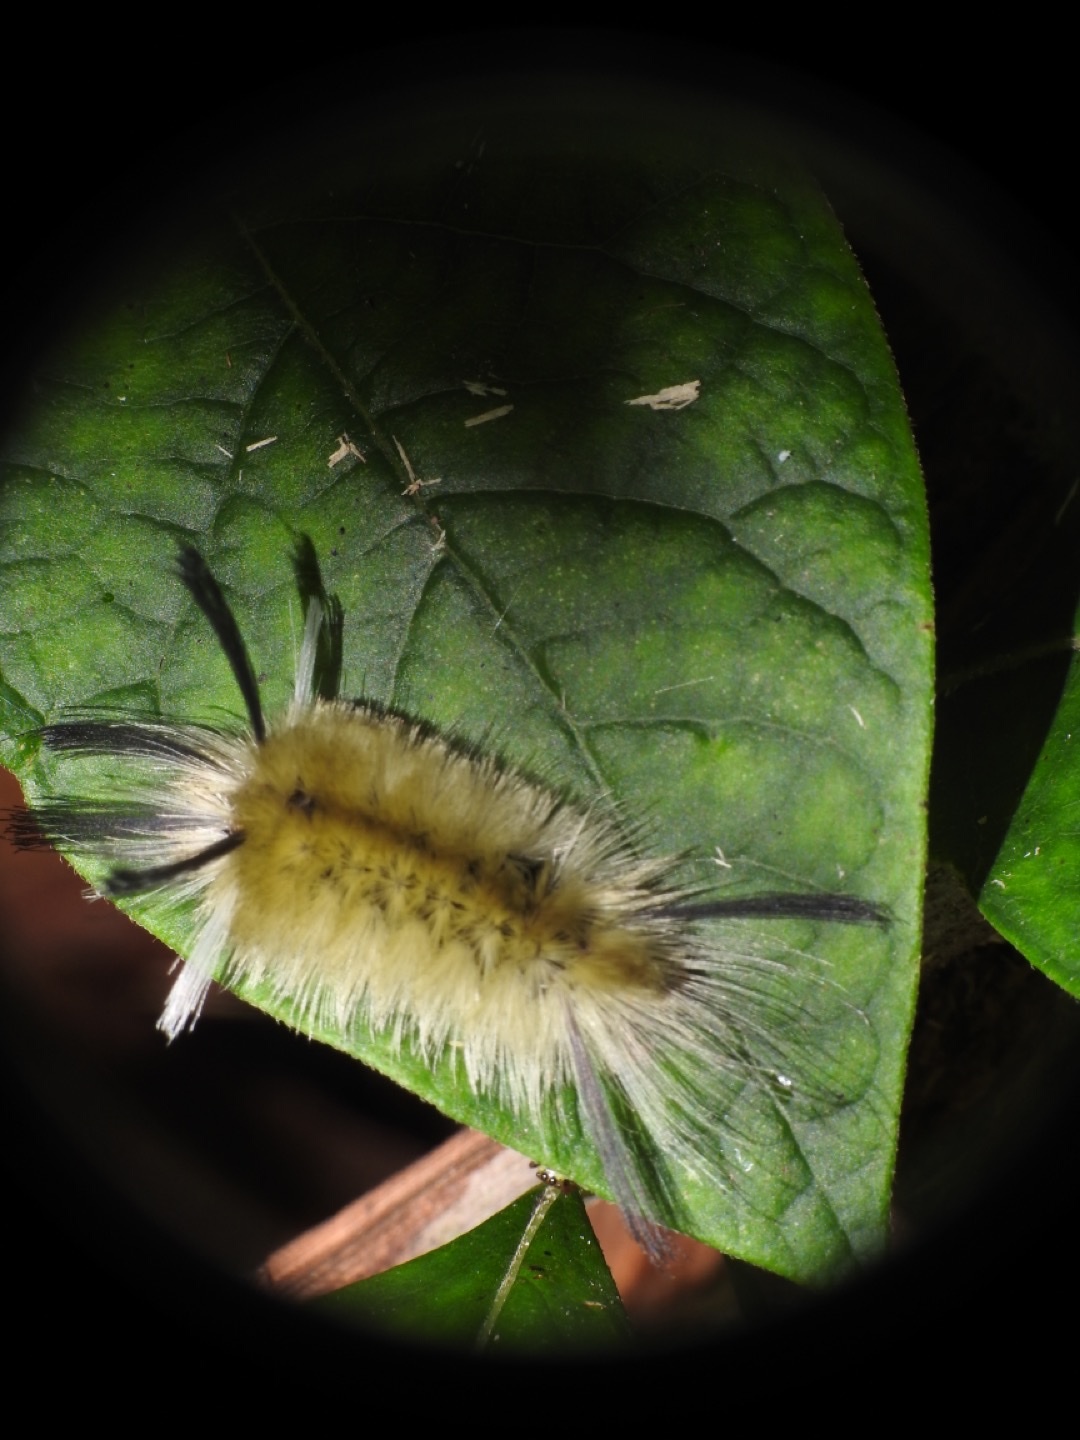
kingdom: Animalia
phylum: Arthropoda
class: Insecta
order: Lepidoptera
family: Erebidae
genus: Halysidota
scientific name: Halysidota tessellaris
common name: Banded tussock moth
